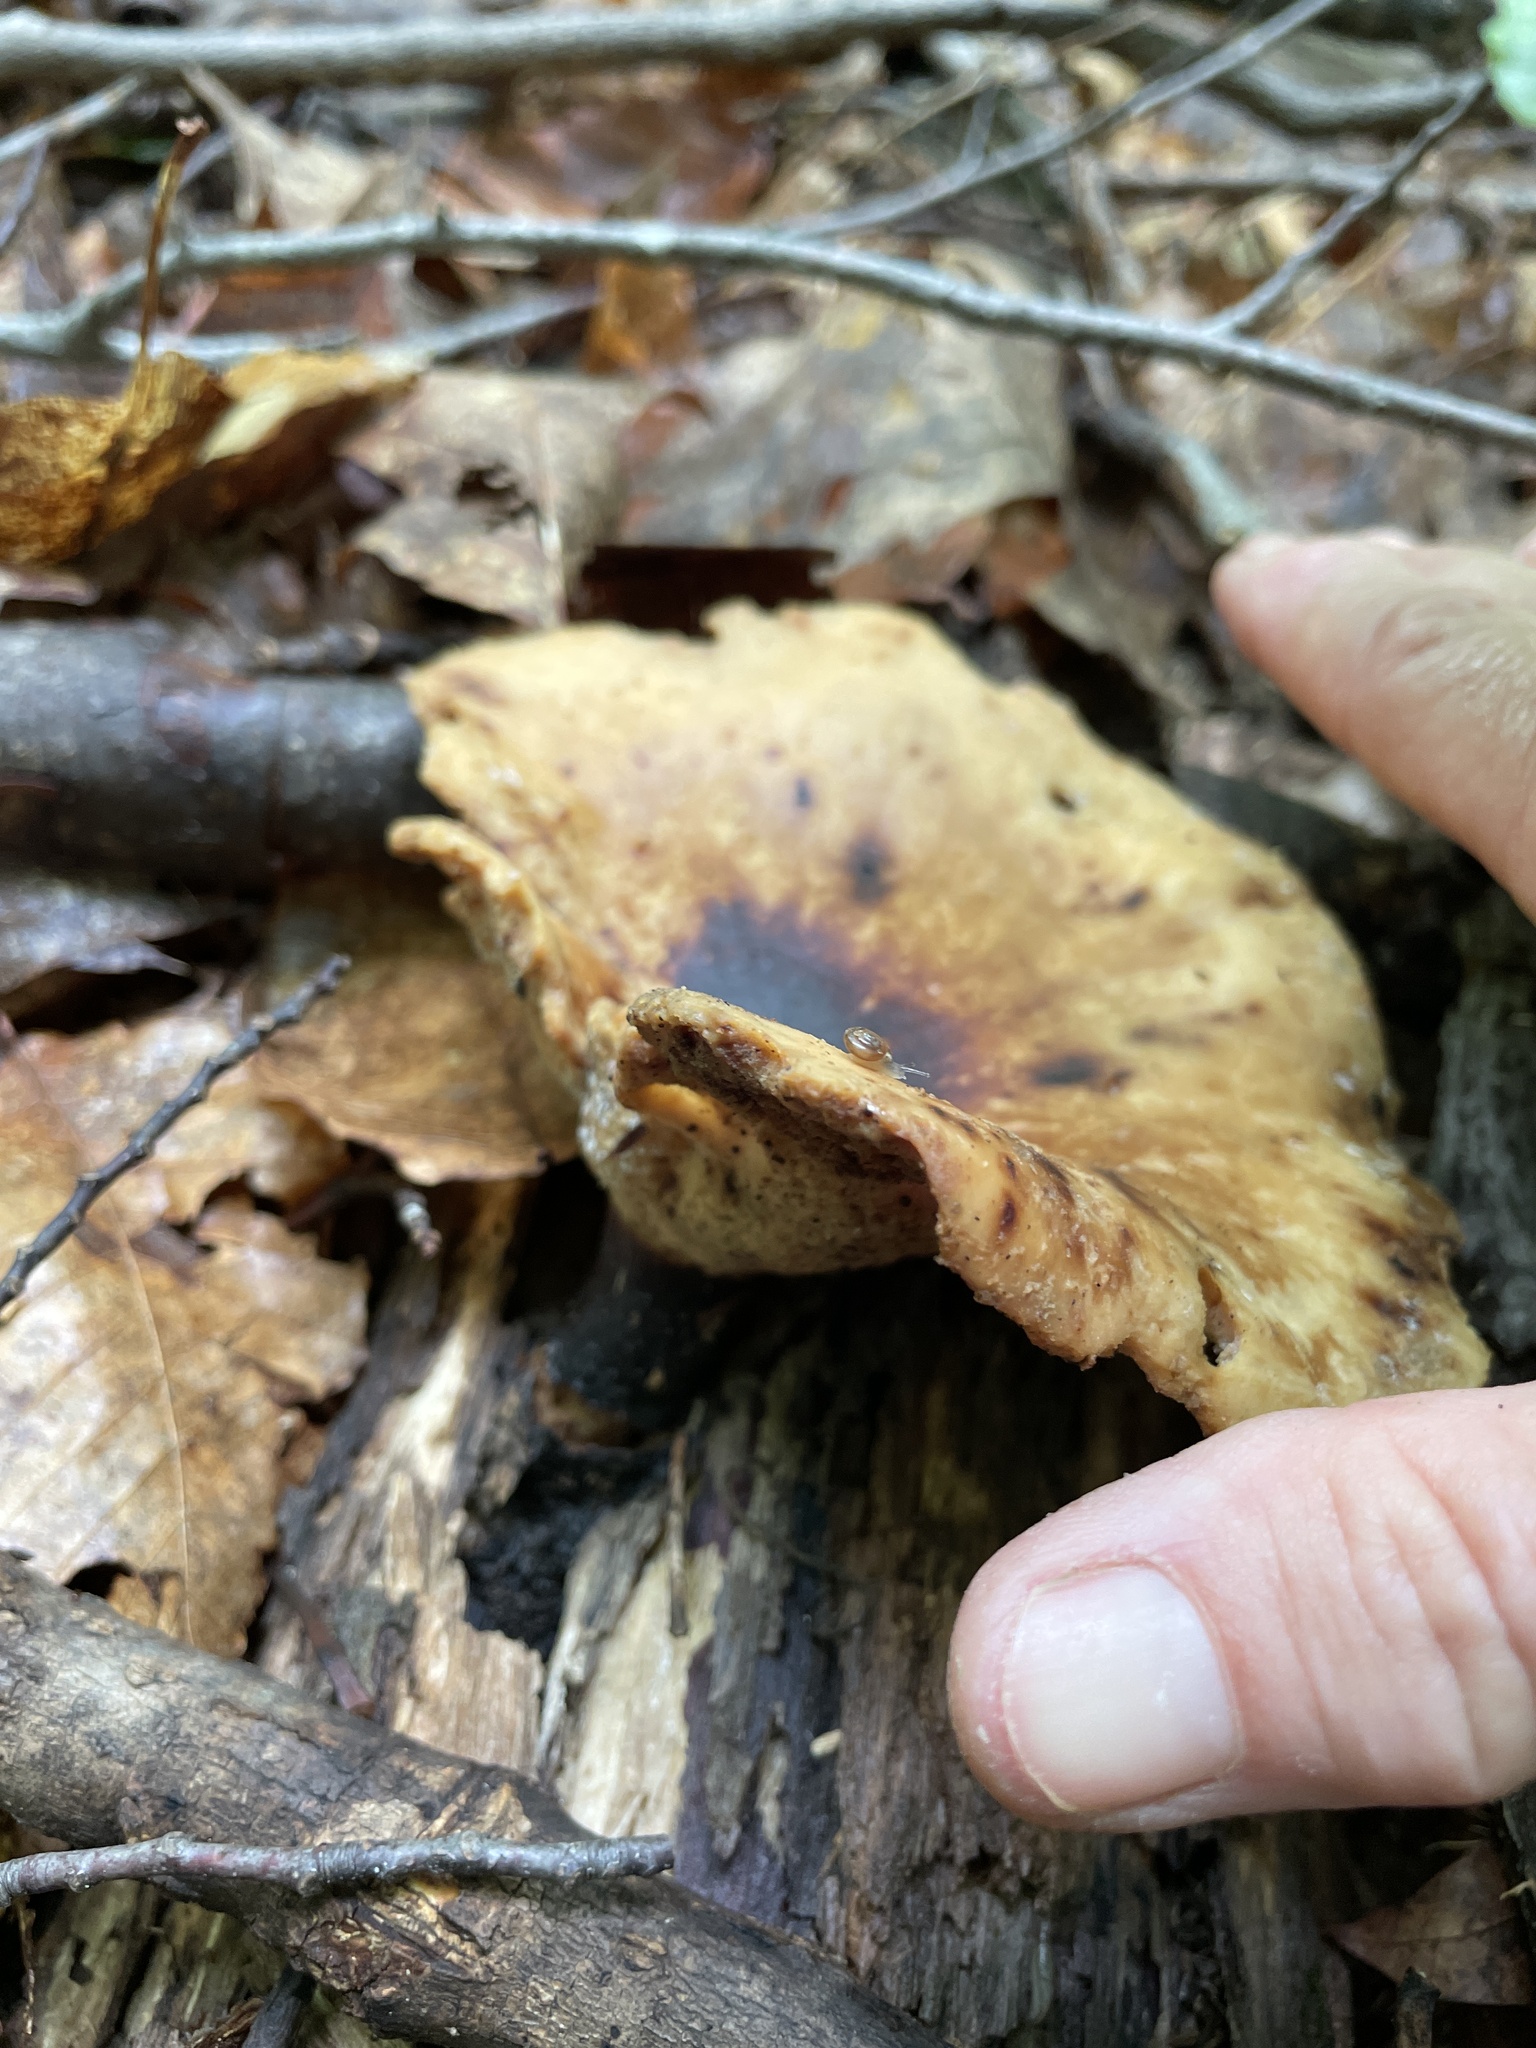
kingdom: Fungi
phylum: Basidiomycota
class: Agaricomycetes
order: Polyporales
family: Polyporaceae
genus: Picipes
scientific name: Picipes badius
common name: Bay polypore
